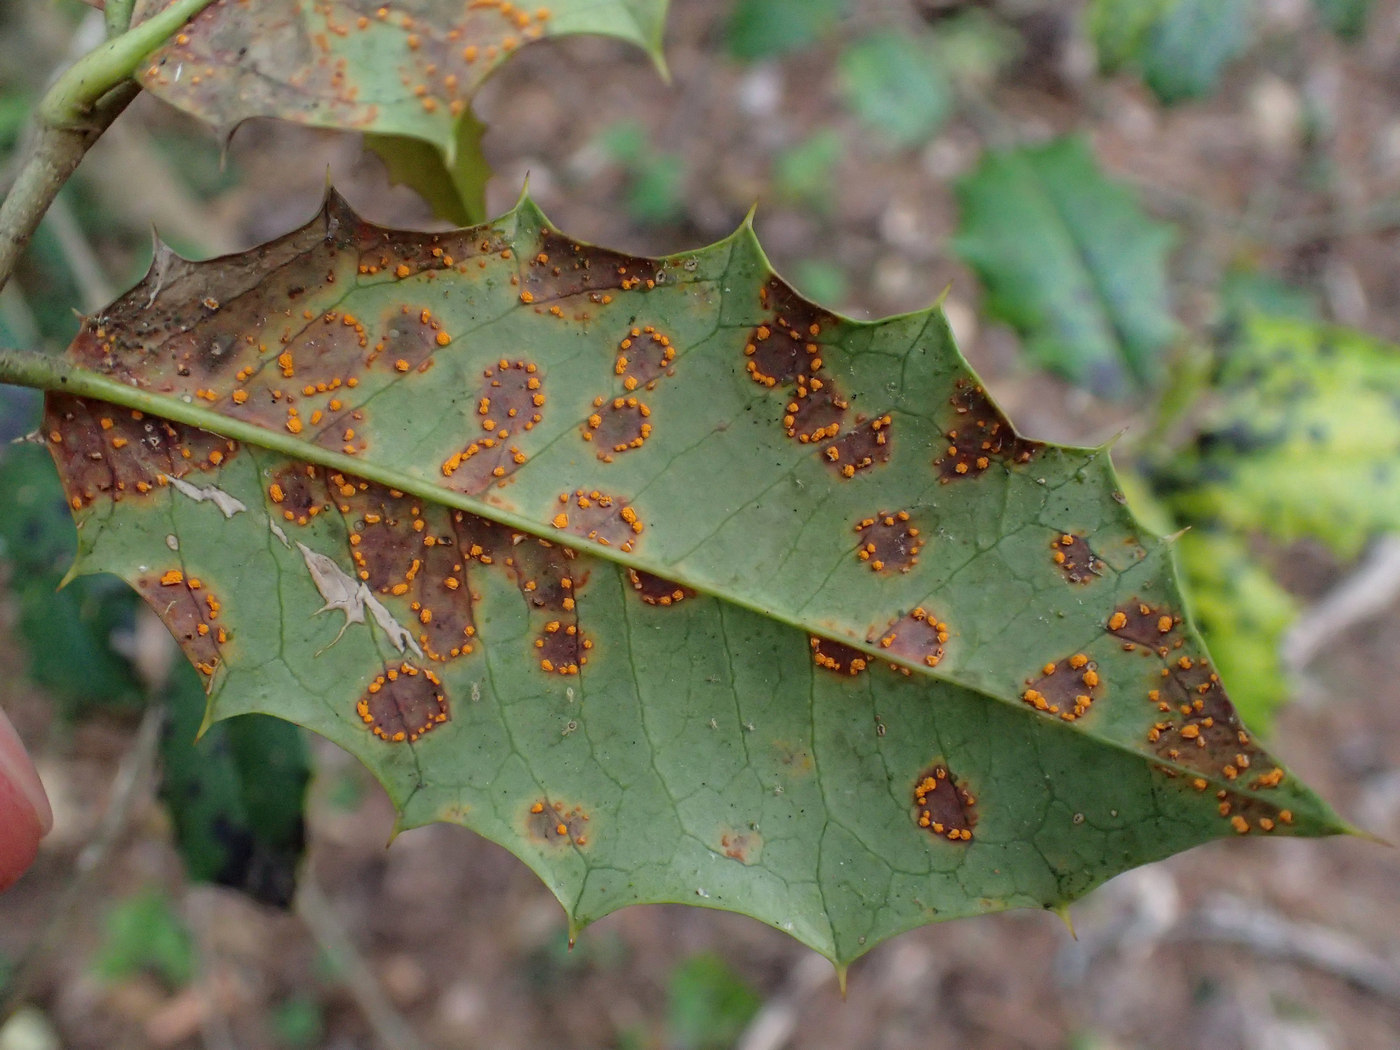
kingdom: Fungi
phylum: Basidiomycota
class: Pucciniomycetes
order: Pucciniales
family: Coleosporiaceae
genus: Chrysomyxa
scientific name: Chrysomyxa ilicina
